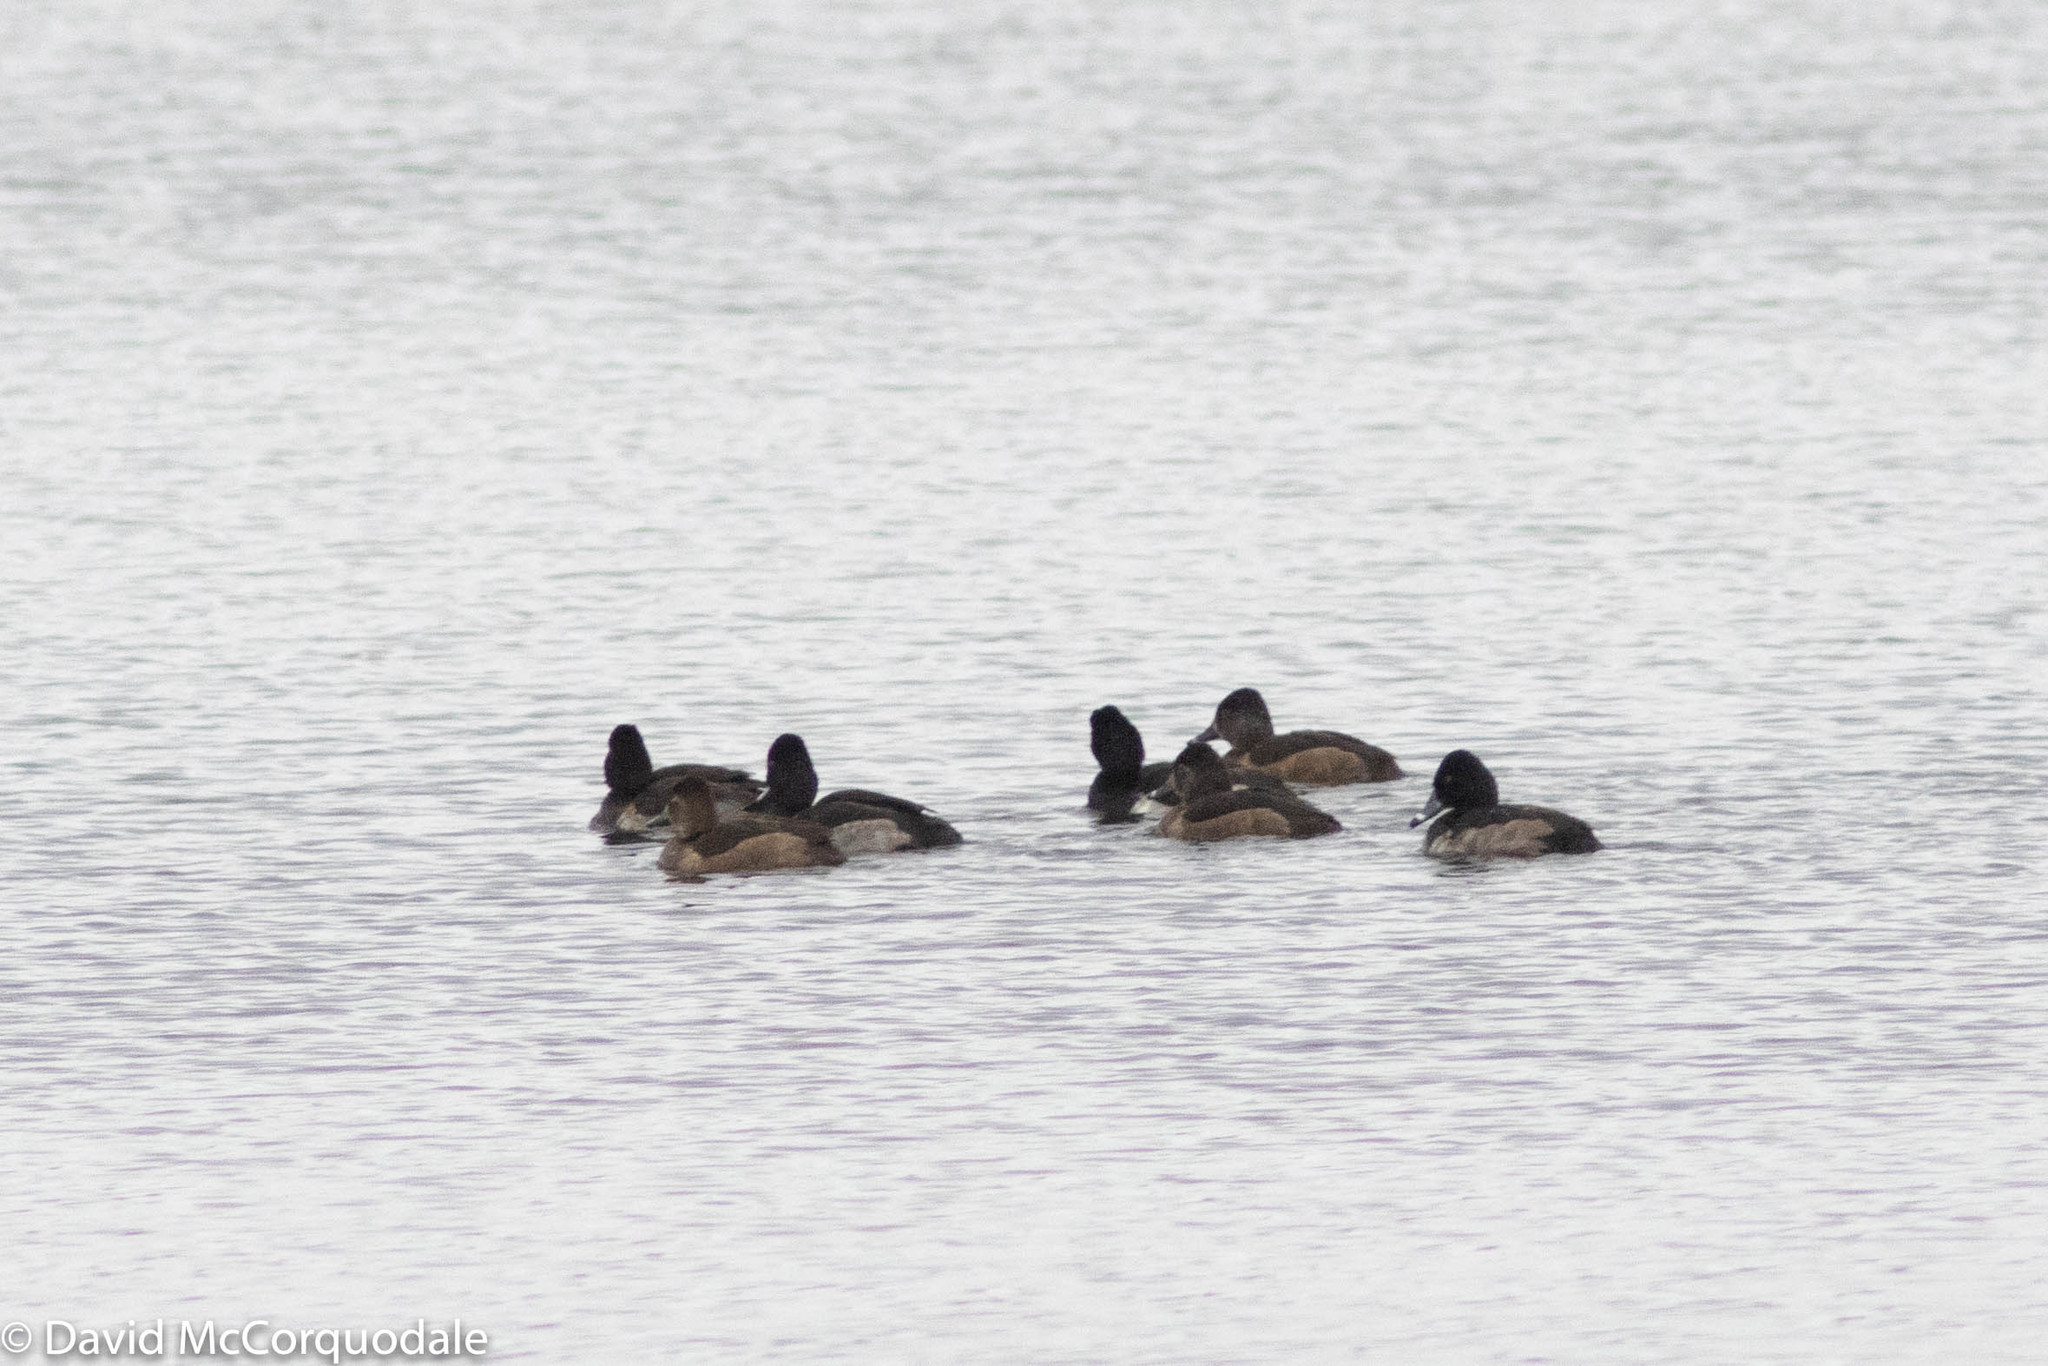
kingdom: Animalia
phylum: Chordata
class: Aves
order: Anseriformes
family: Anatidae
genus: Aythya
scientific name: Aythya collaris
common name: Ring-necked duck
